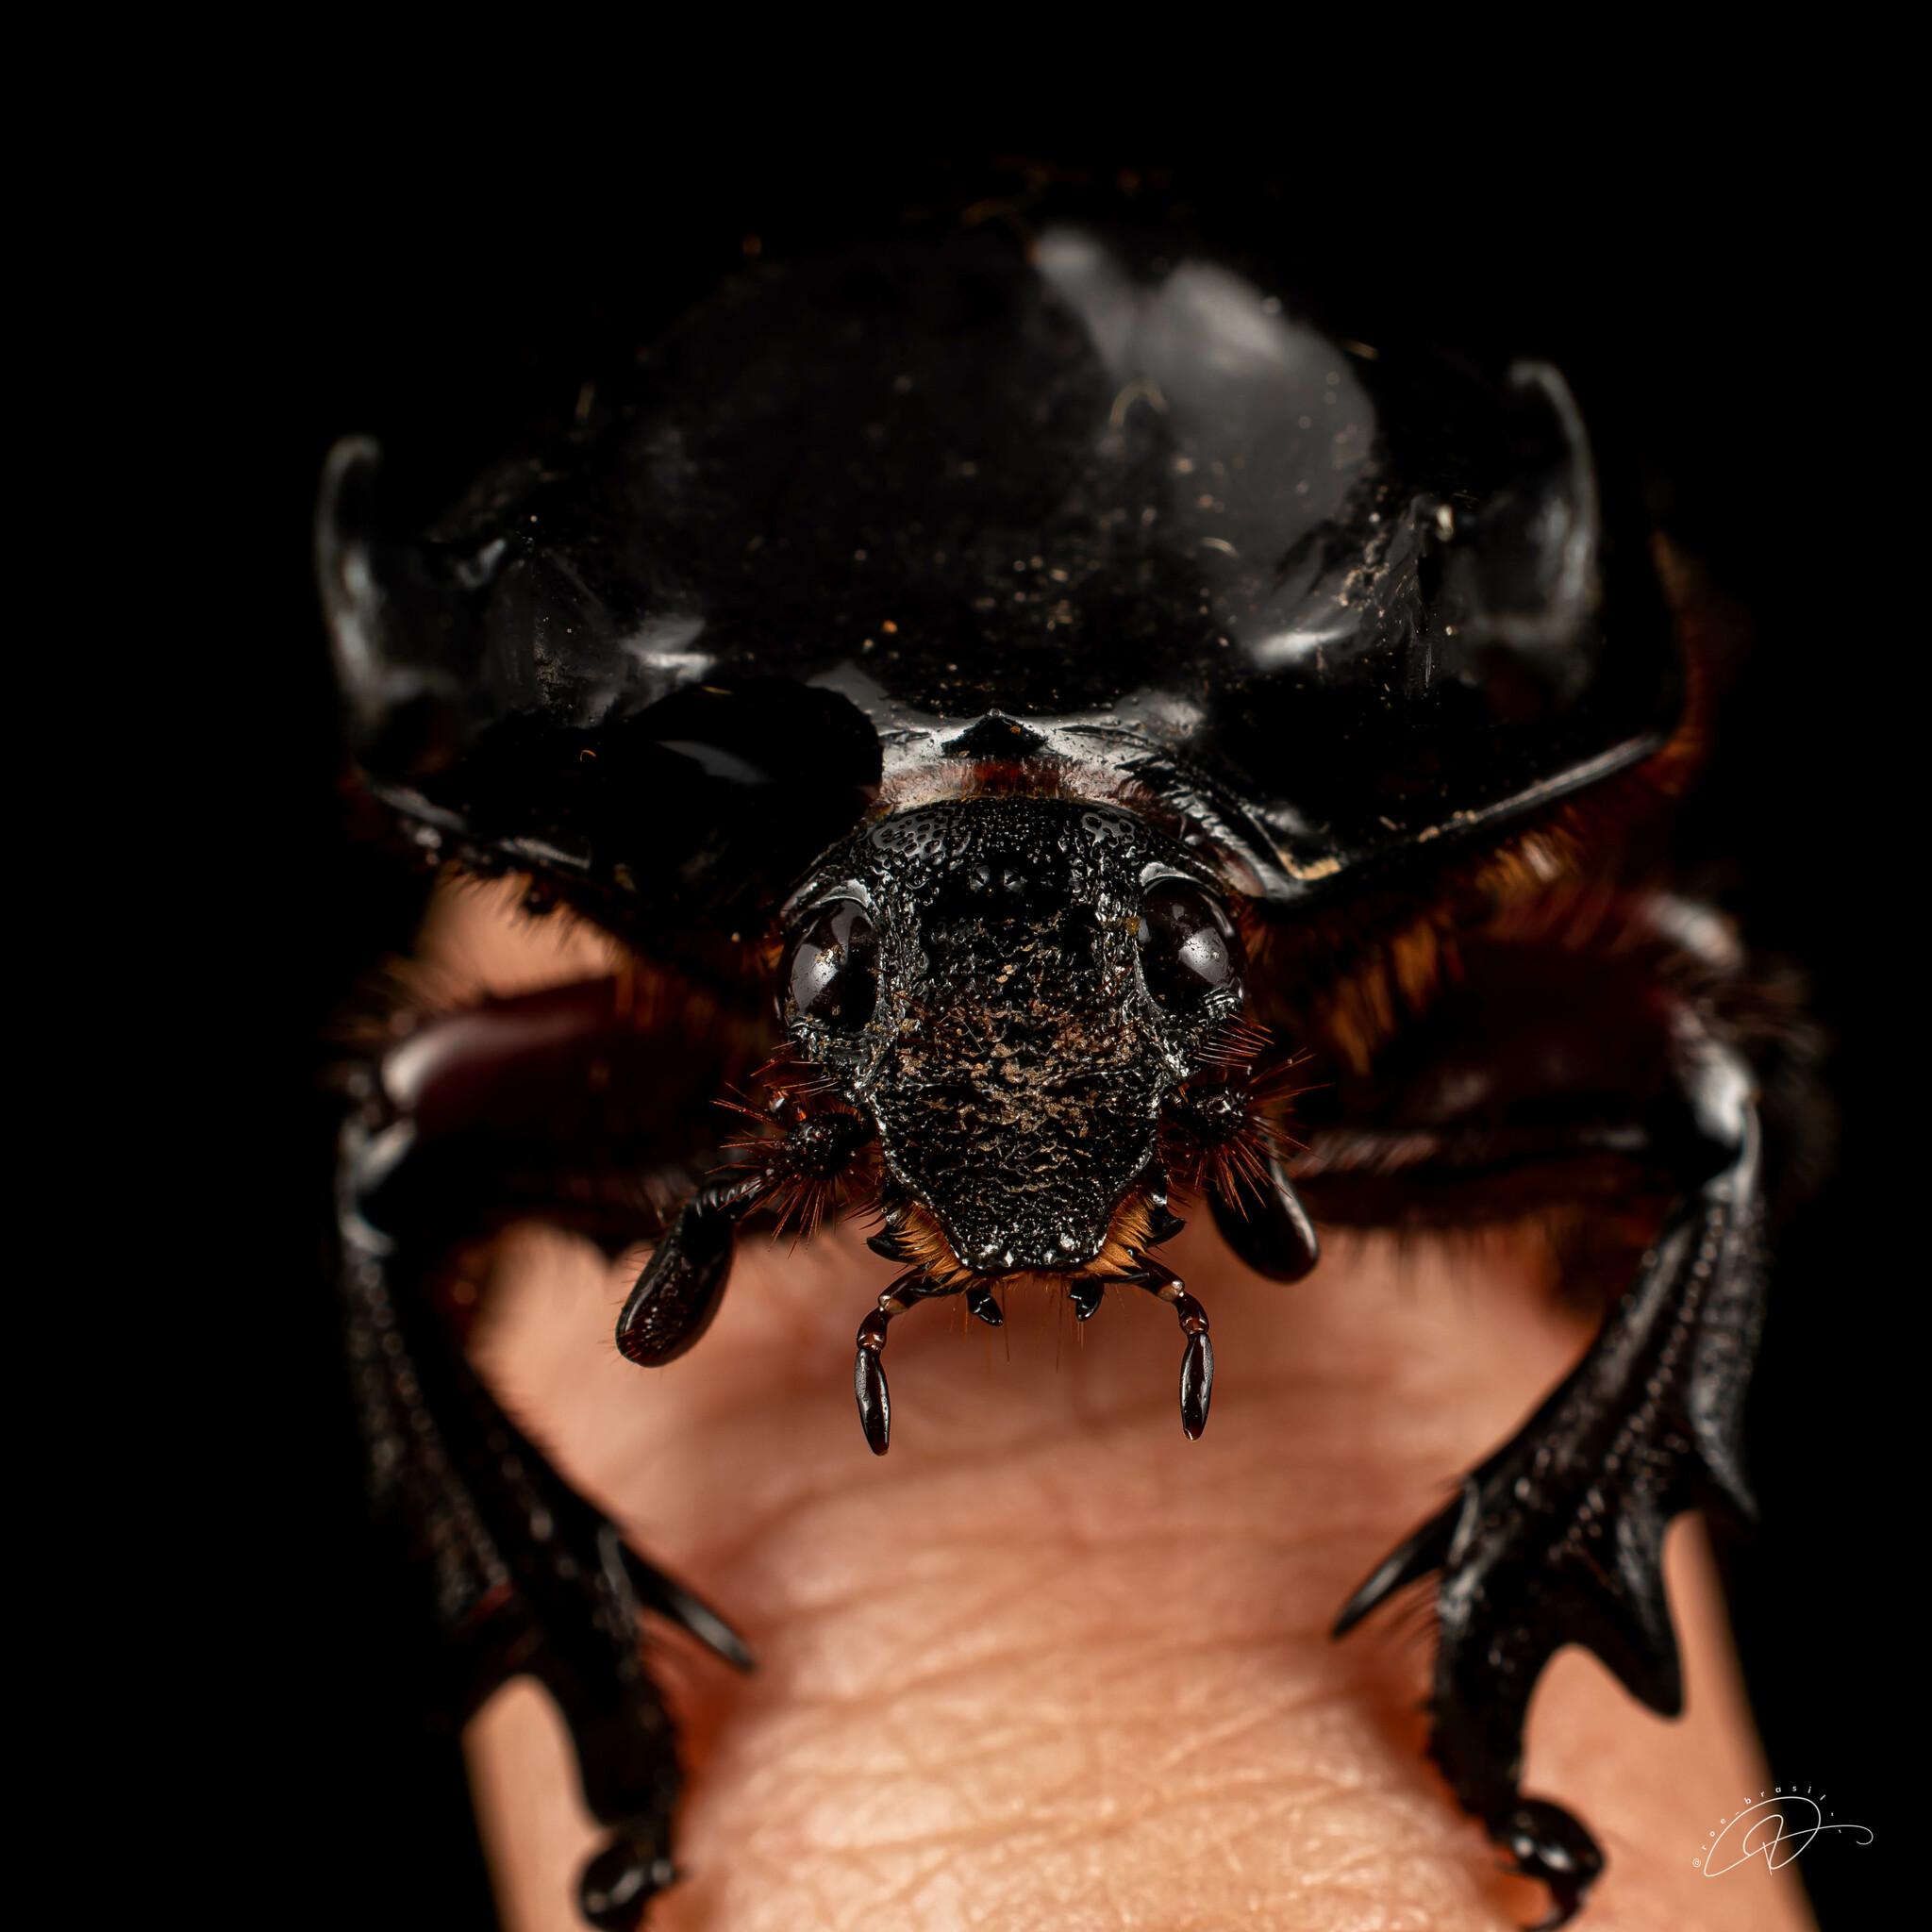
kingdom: Animalia
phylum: Arthropoda
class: Insecta
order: Coleoptera
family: Scarabaeidae
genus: Bothynus
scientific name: Bothynus entellus
